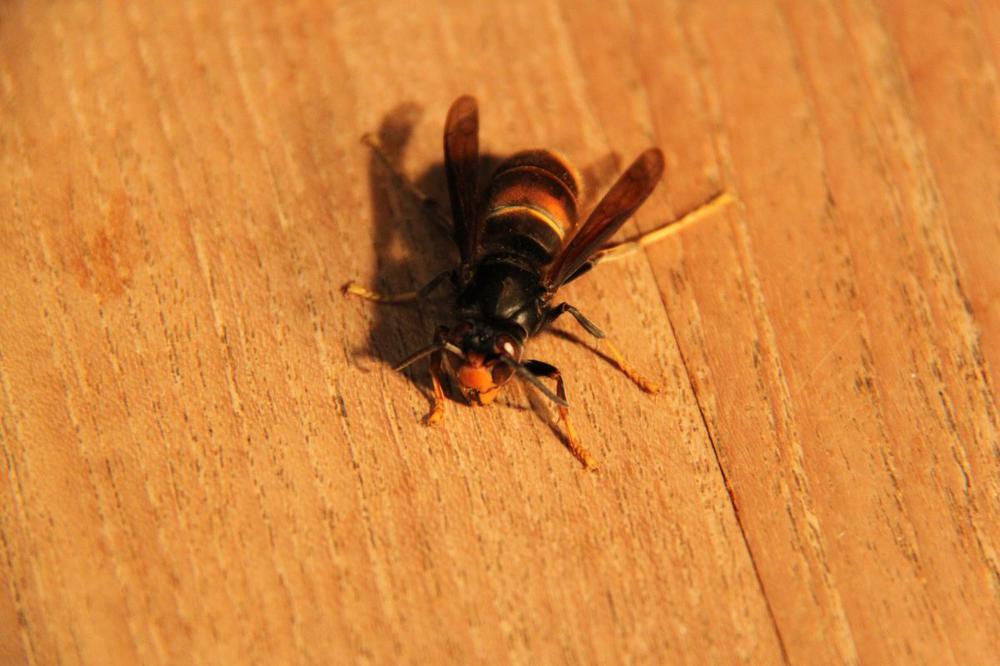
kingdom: Animalia
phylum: Arthropoda
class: Insecta
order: Hymenoptera
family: Vespidae
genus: Vespa
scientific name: Vespa velutina
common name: Asian hornet
